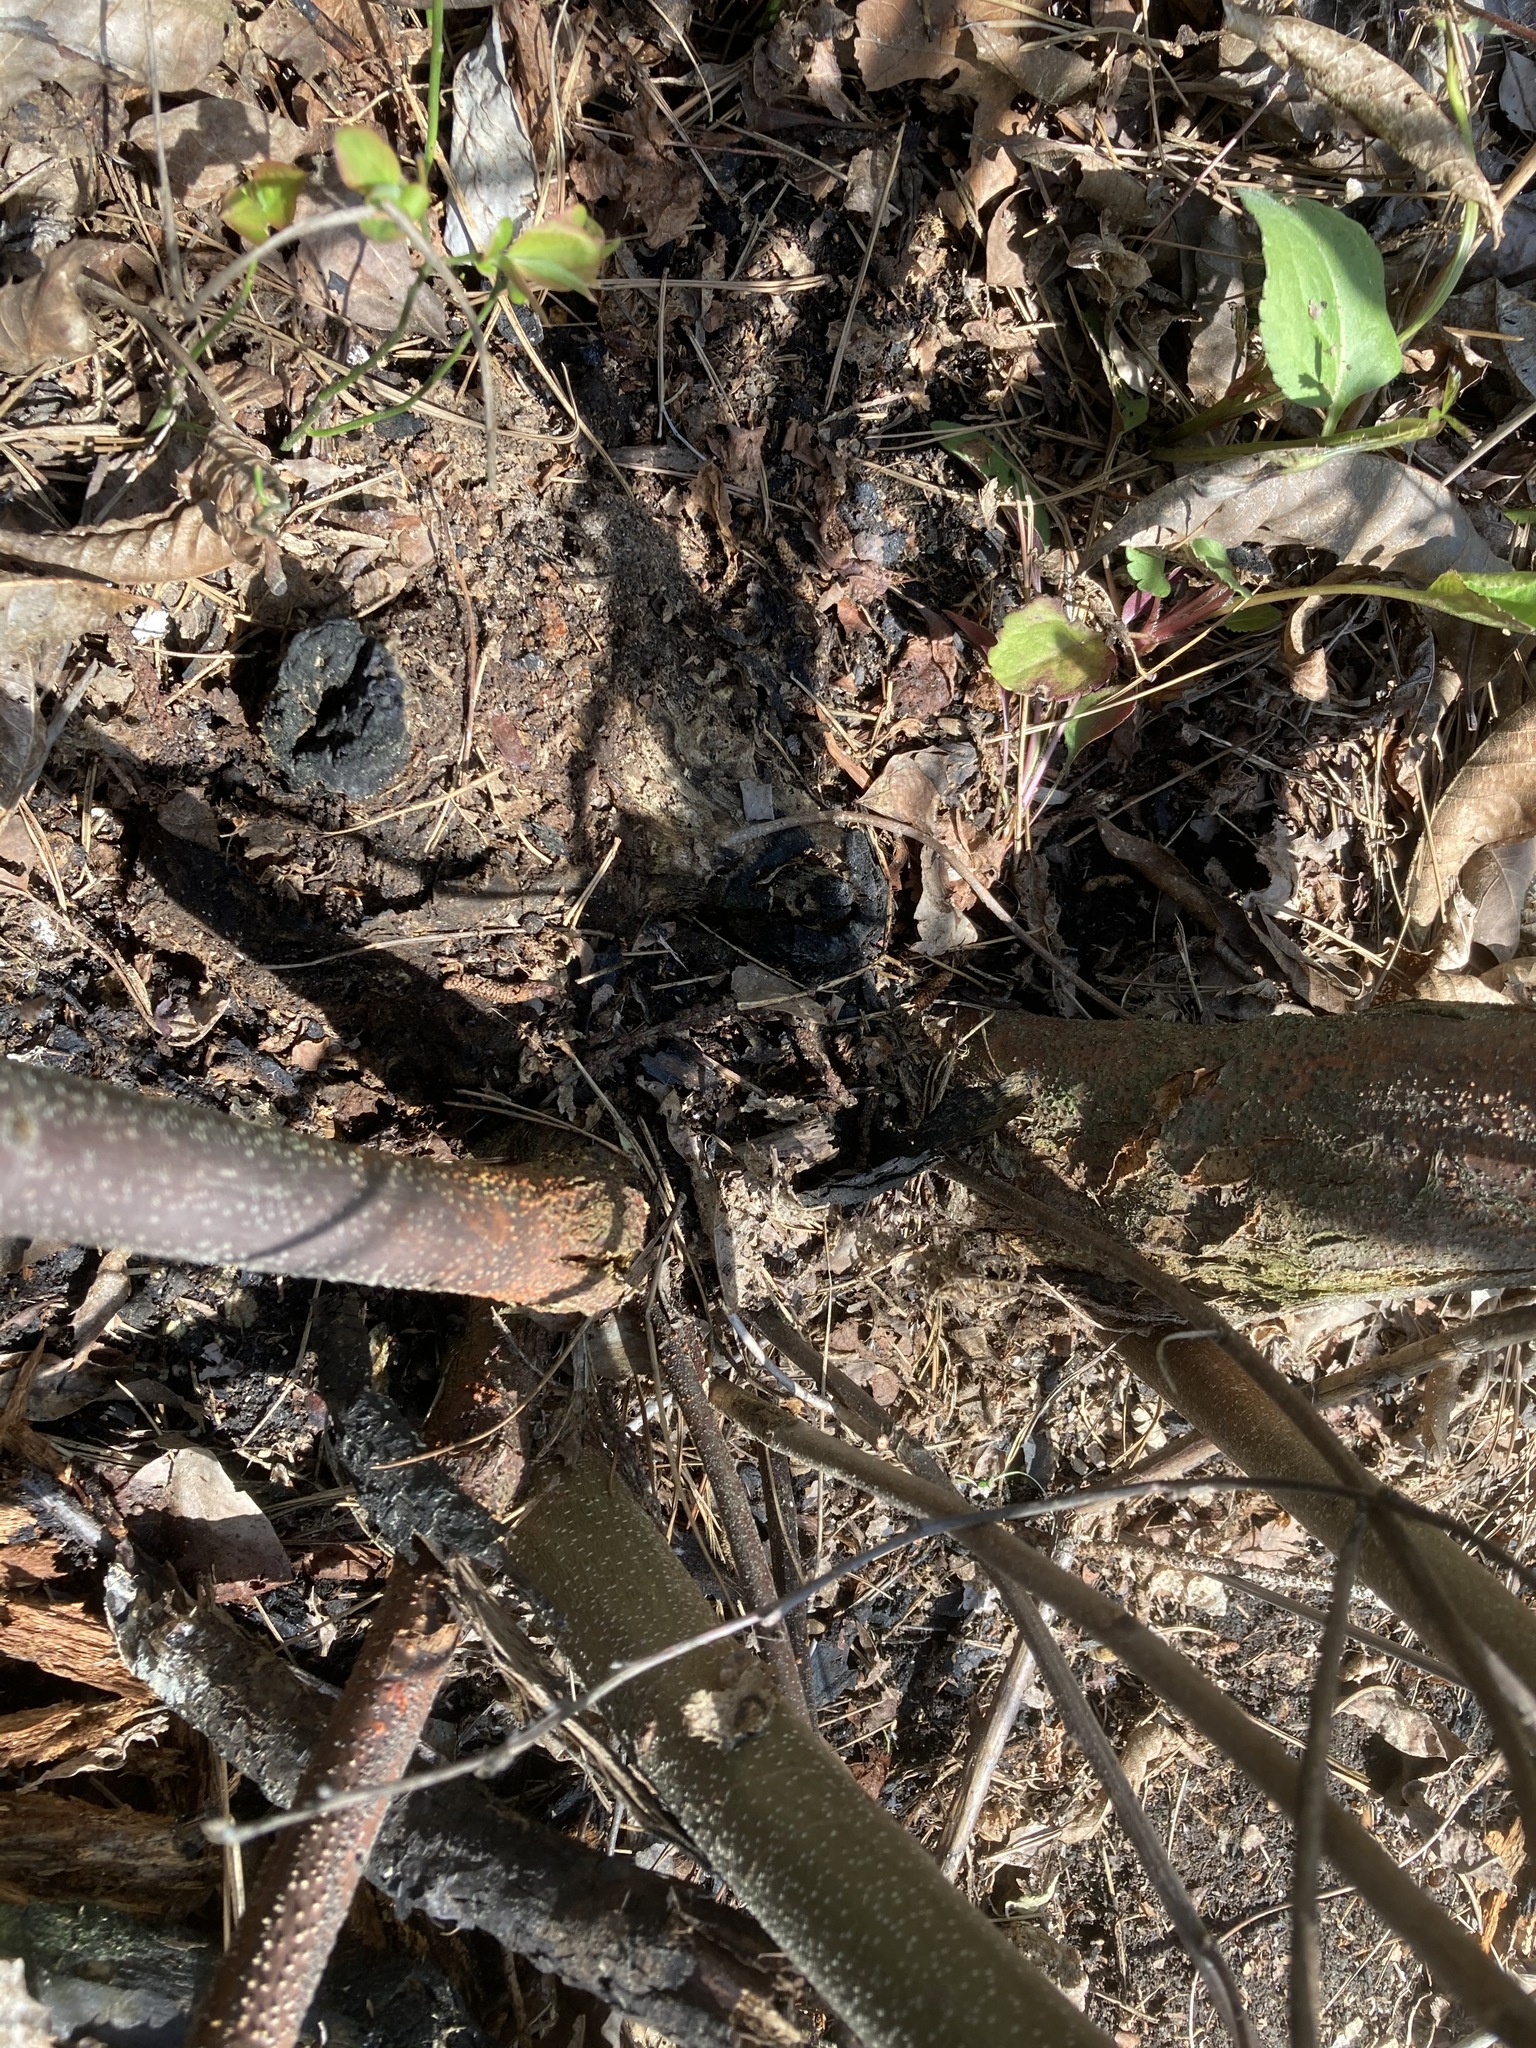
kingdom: Plantae
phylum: Tracheophyta
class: Magnoliopsida
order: Fagales
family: Fagaceae
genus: Castanea
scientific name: Castanea ozarkensis
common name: Ozark chinkapin
